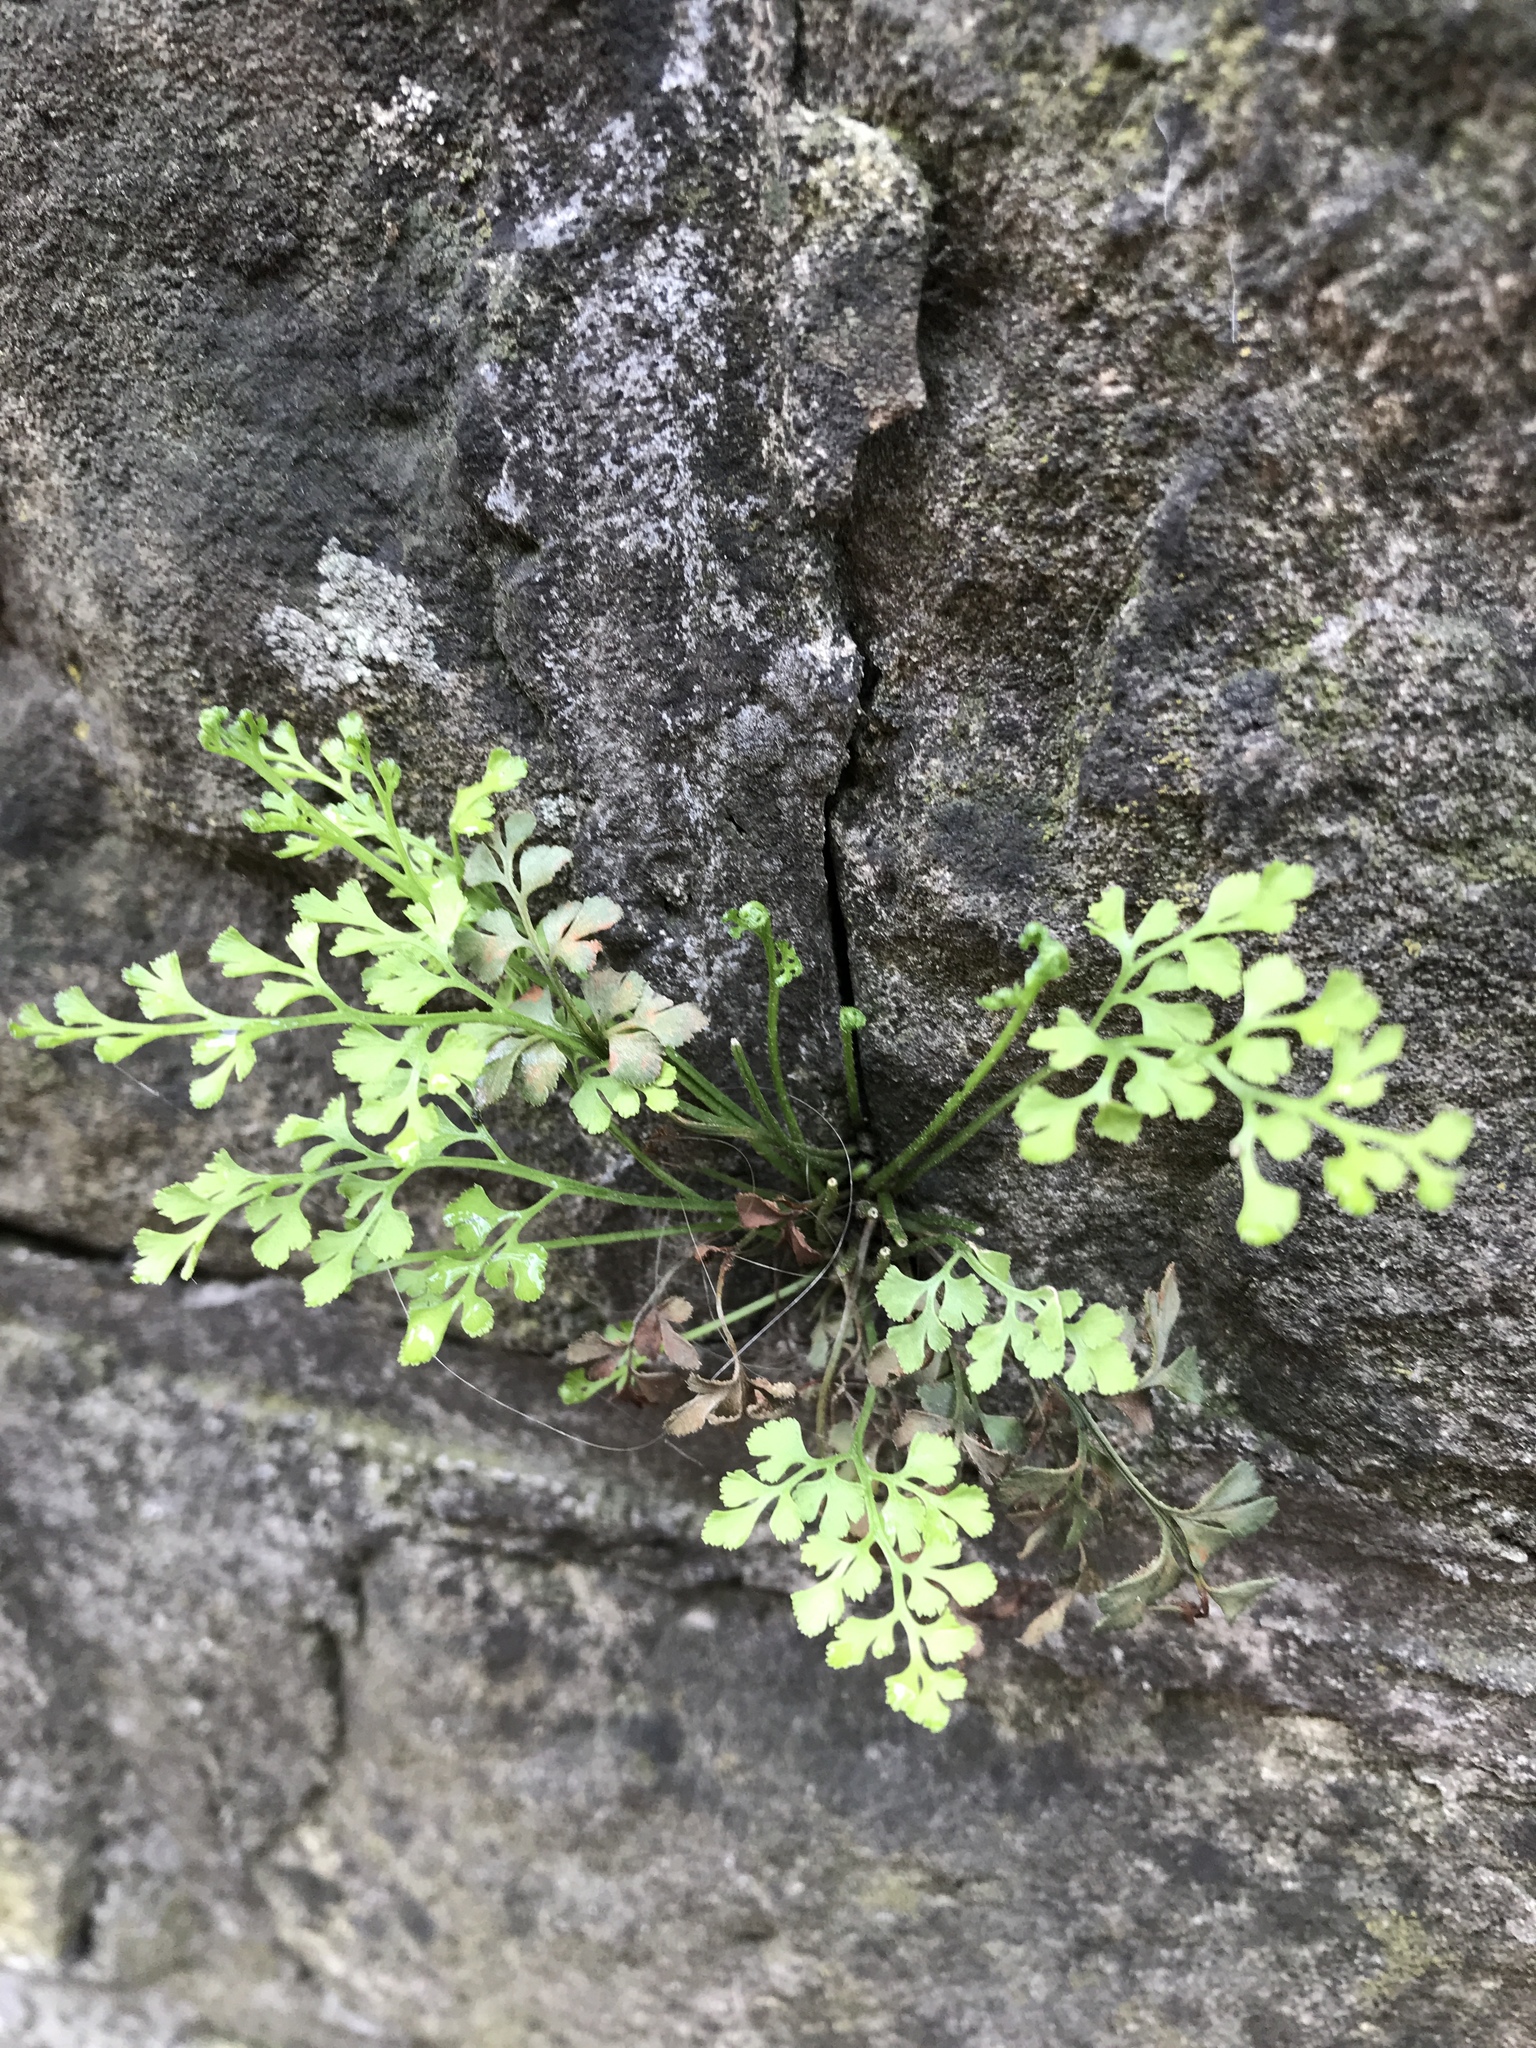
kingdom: Plantae
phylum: Tracheophyta
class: Polypodiopsida
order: Polypodiales
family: Aspleniaceae
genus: Asplenium
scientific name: Asplenium ruta-muraria
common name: Wall-rue
